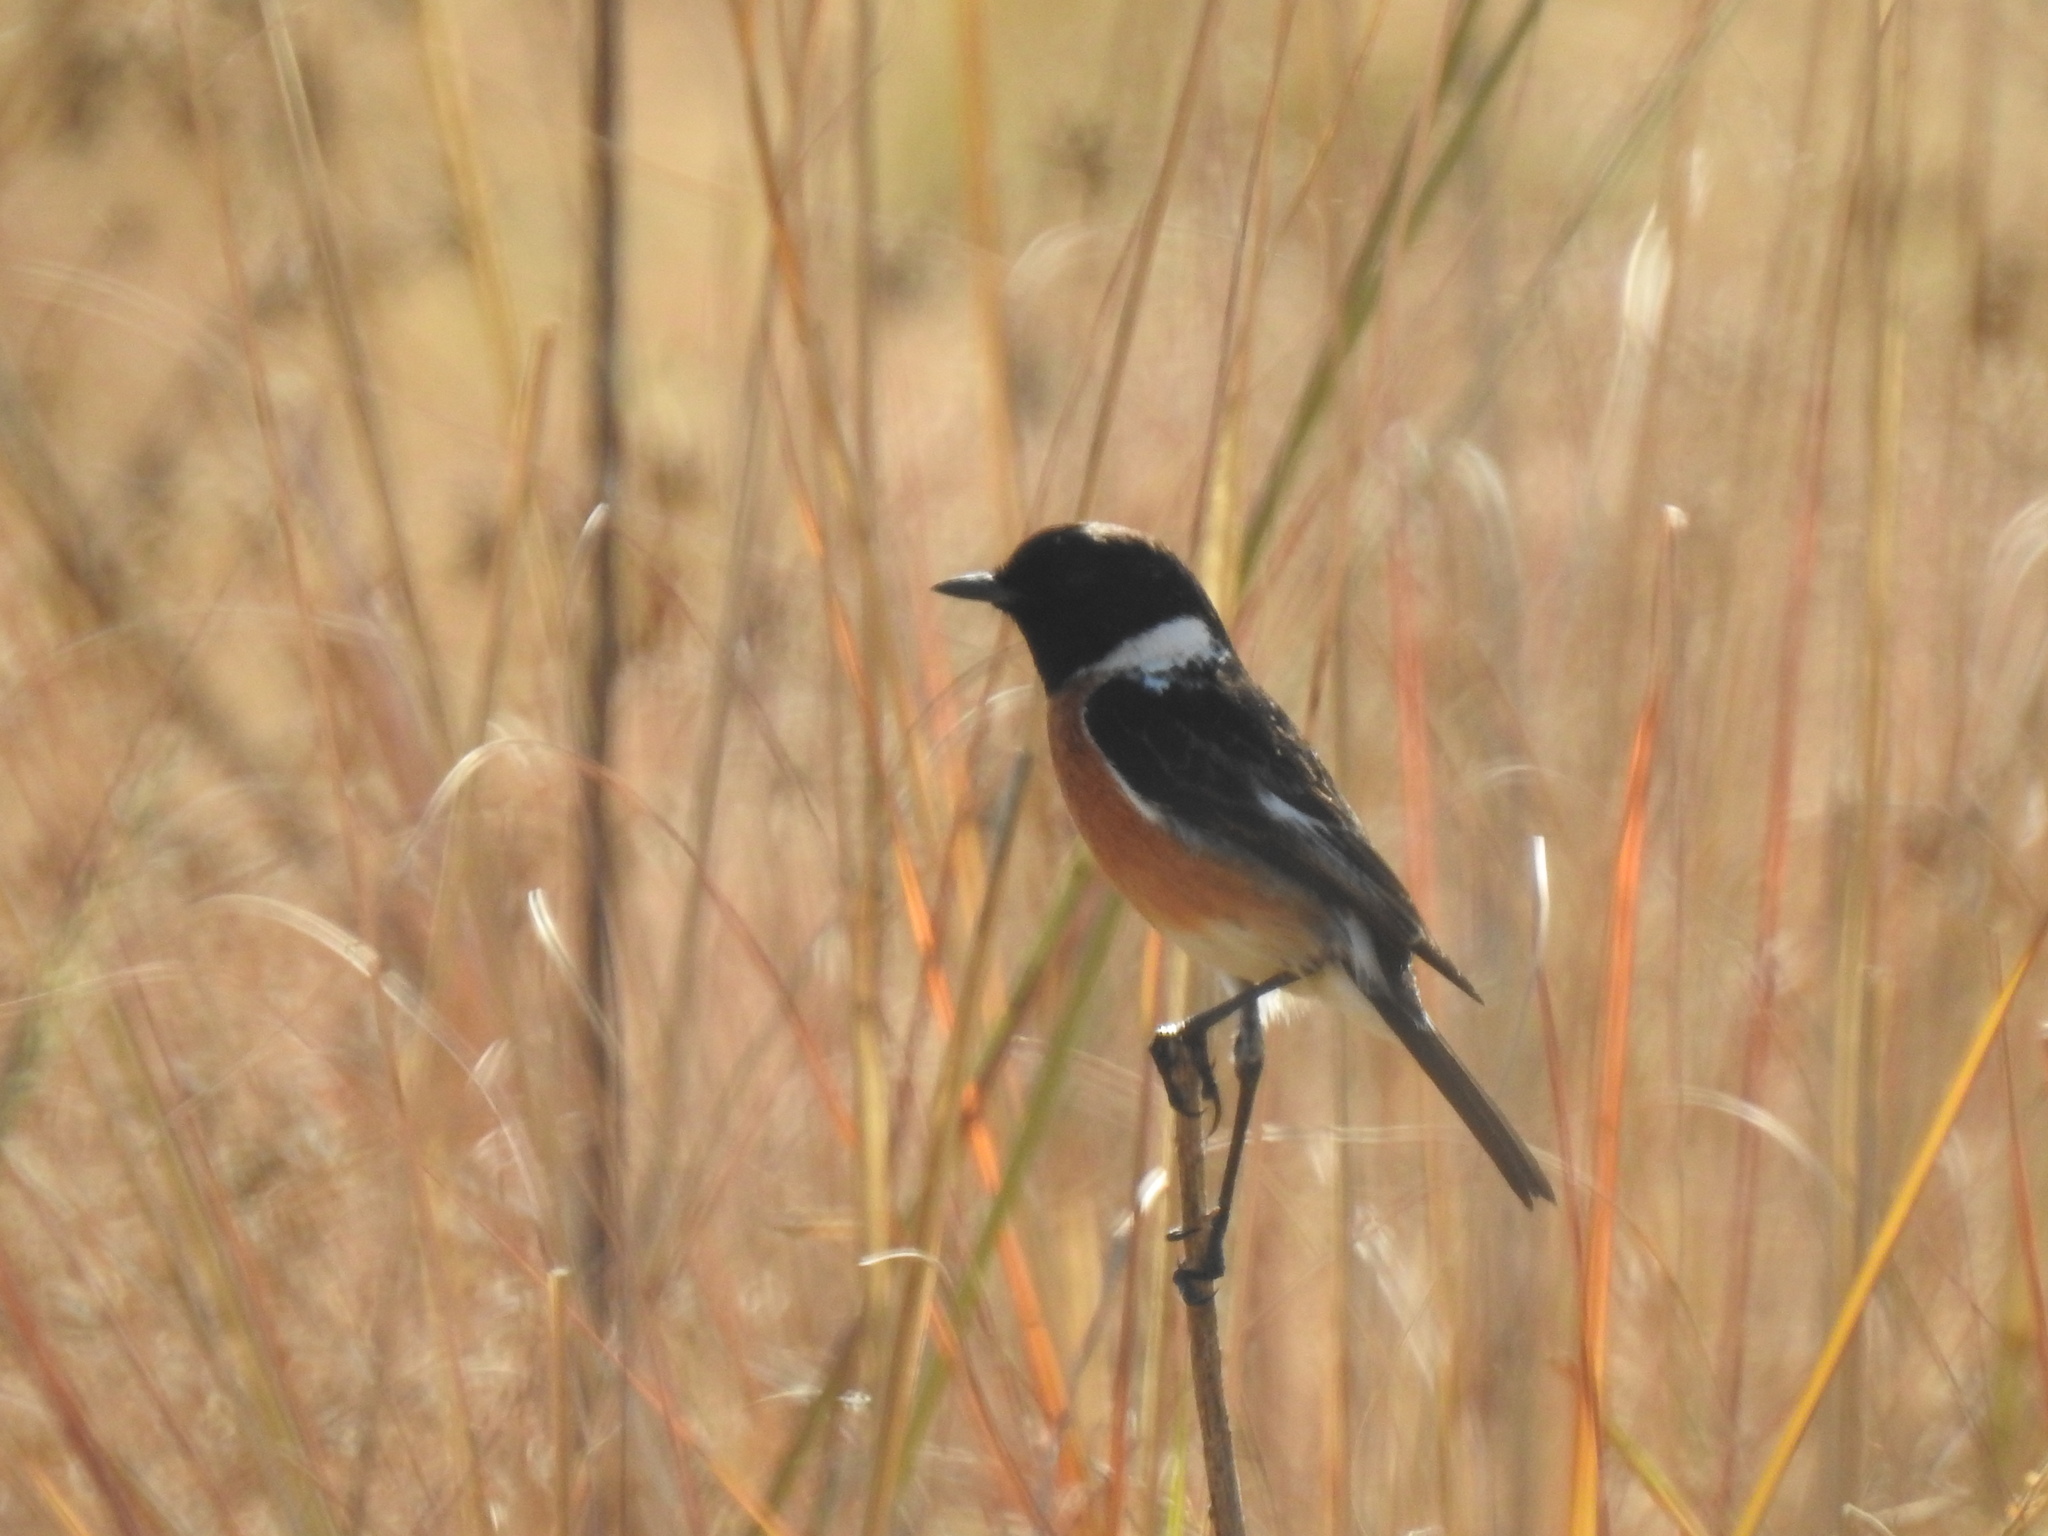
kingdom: Animalia
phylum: Chordata
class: Aves
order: Passeriformes
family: Muscicapidae
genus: Saxicola
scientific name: Saxicola torquatus
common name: African stonechat
